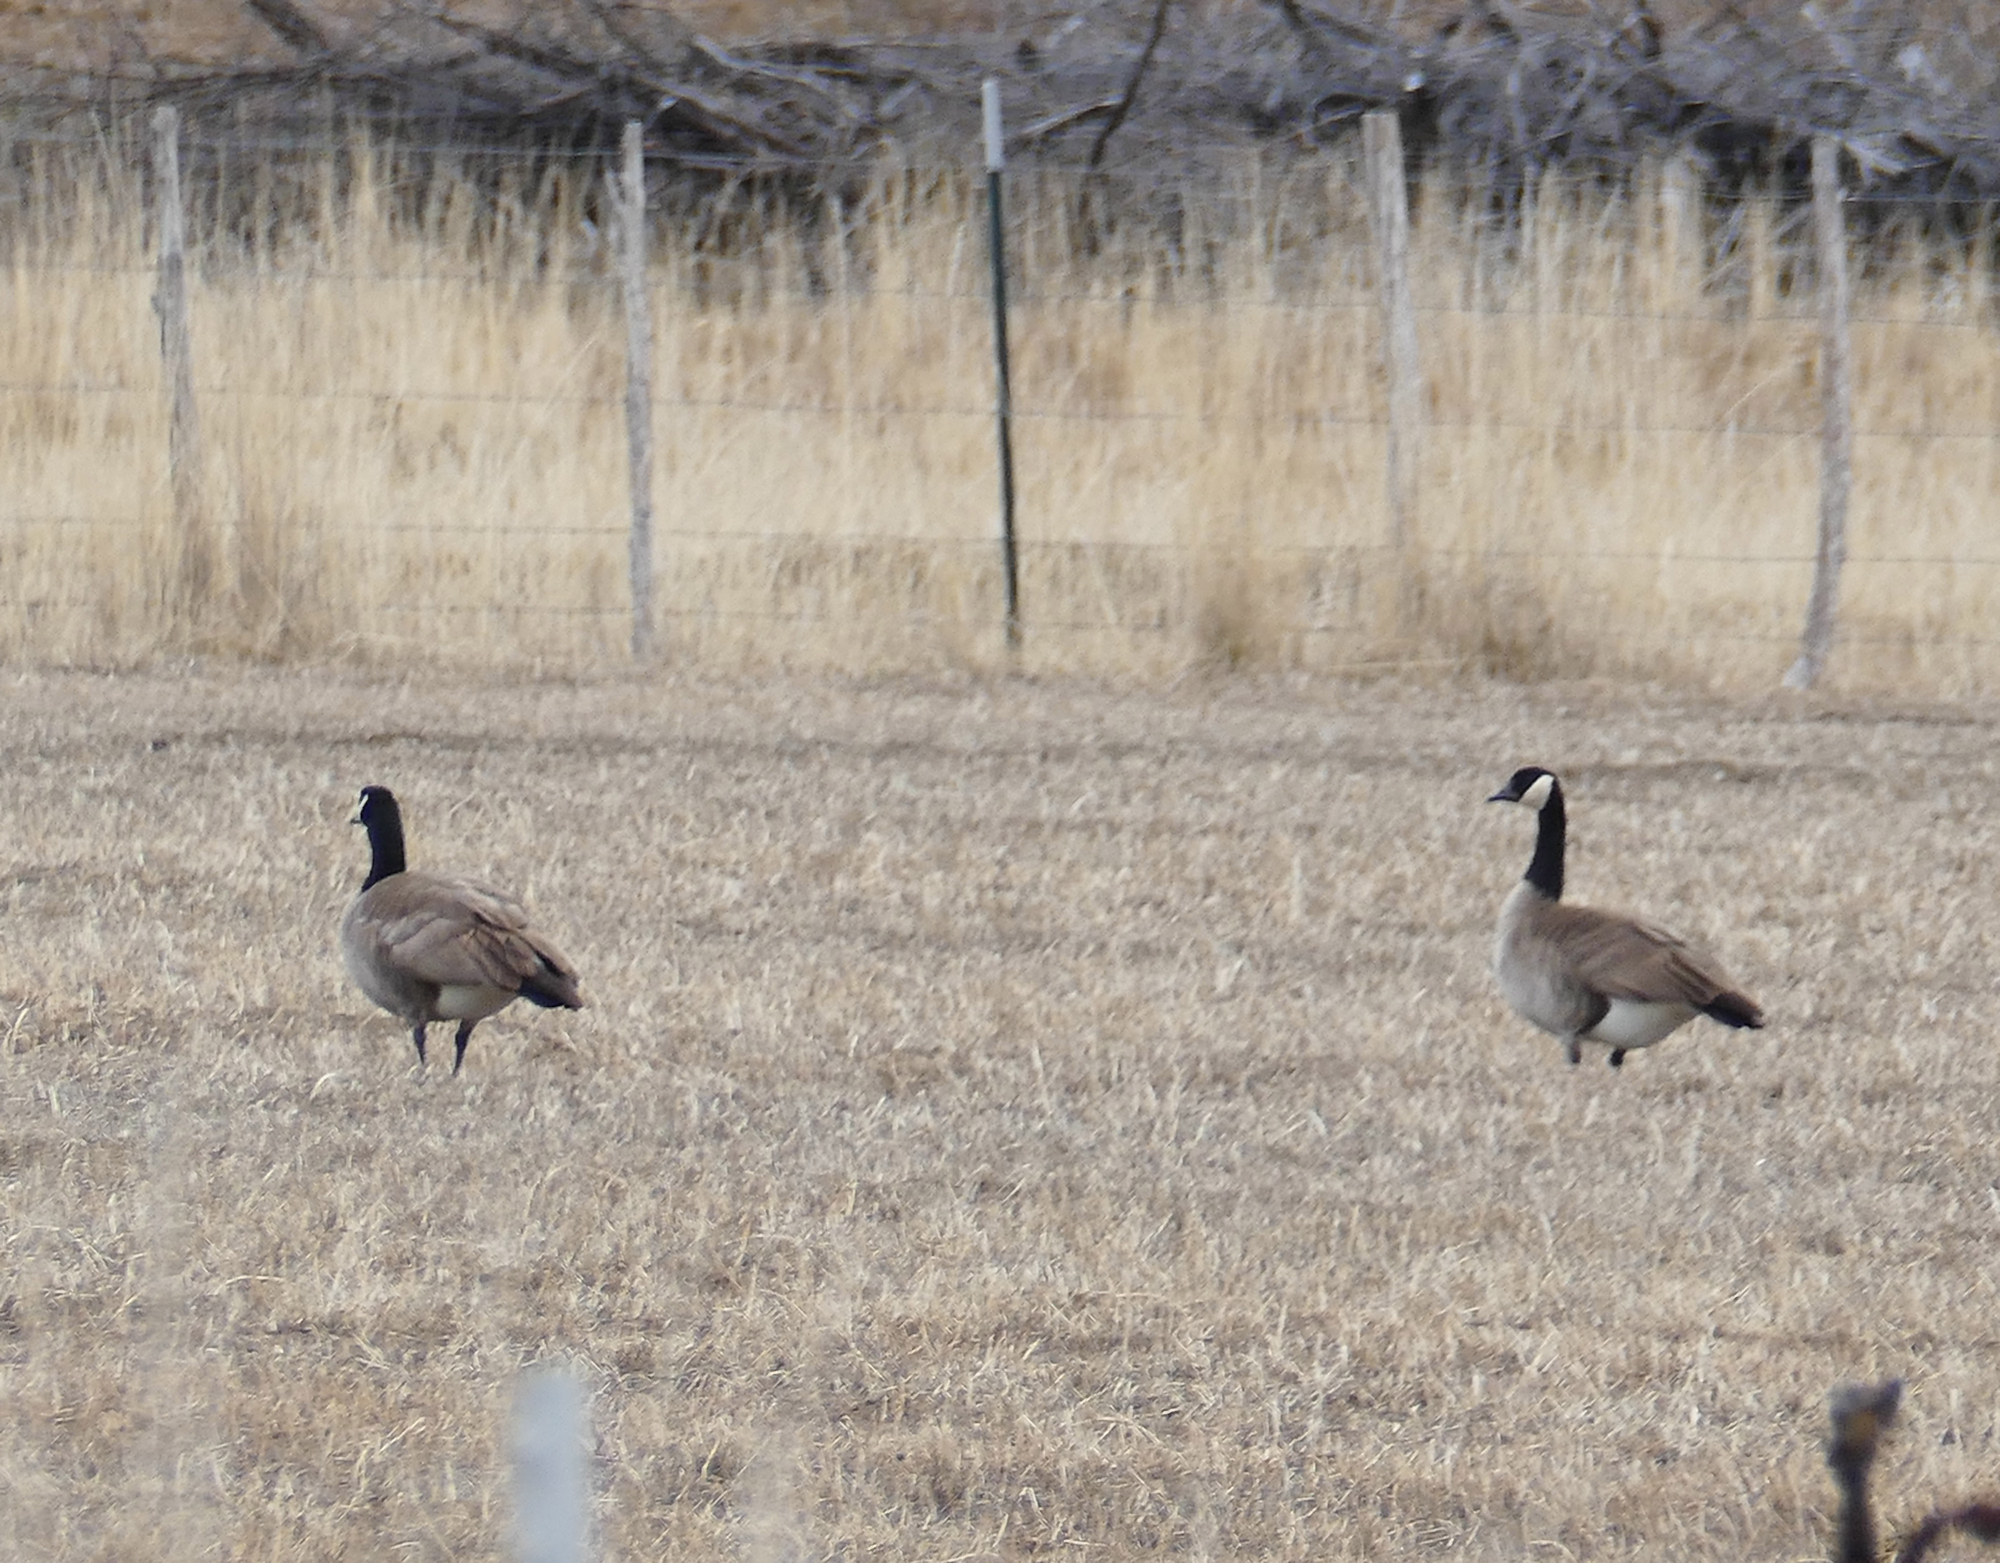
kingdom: Animalia
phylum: Chordata
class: Aves
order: Anseriformes
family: Anatidae
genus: Branta
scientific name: Branta canadensis
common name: Canada goose
